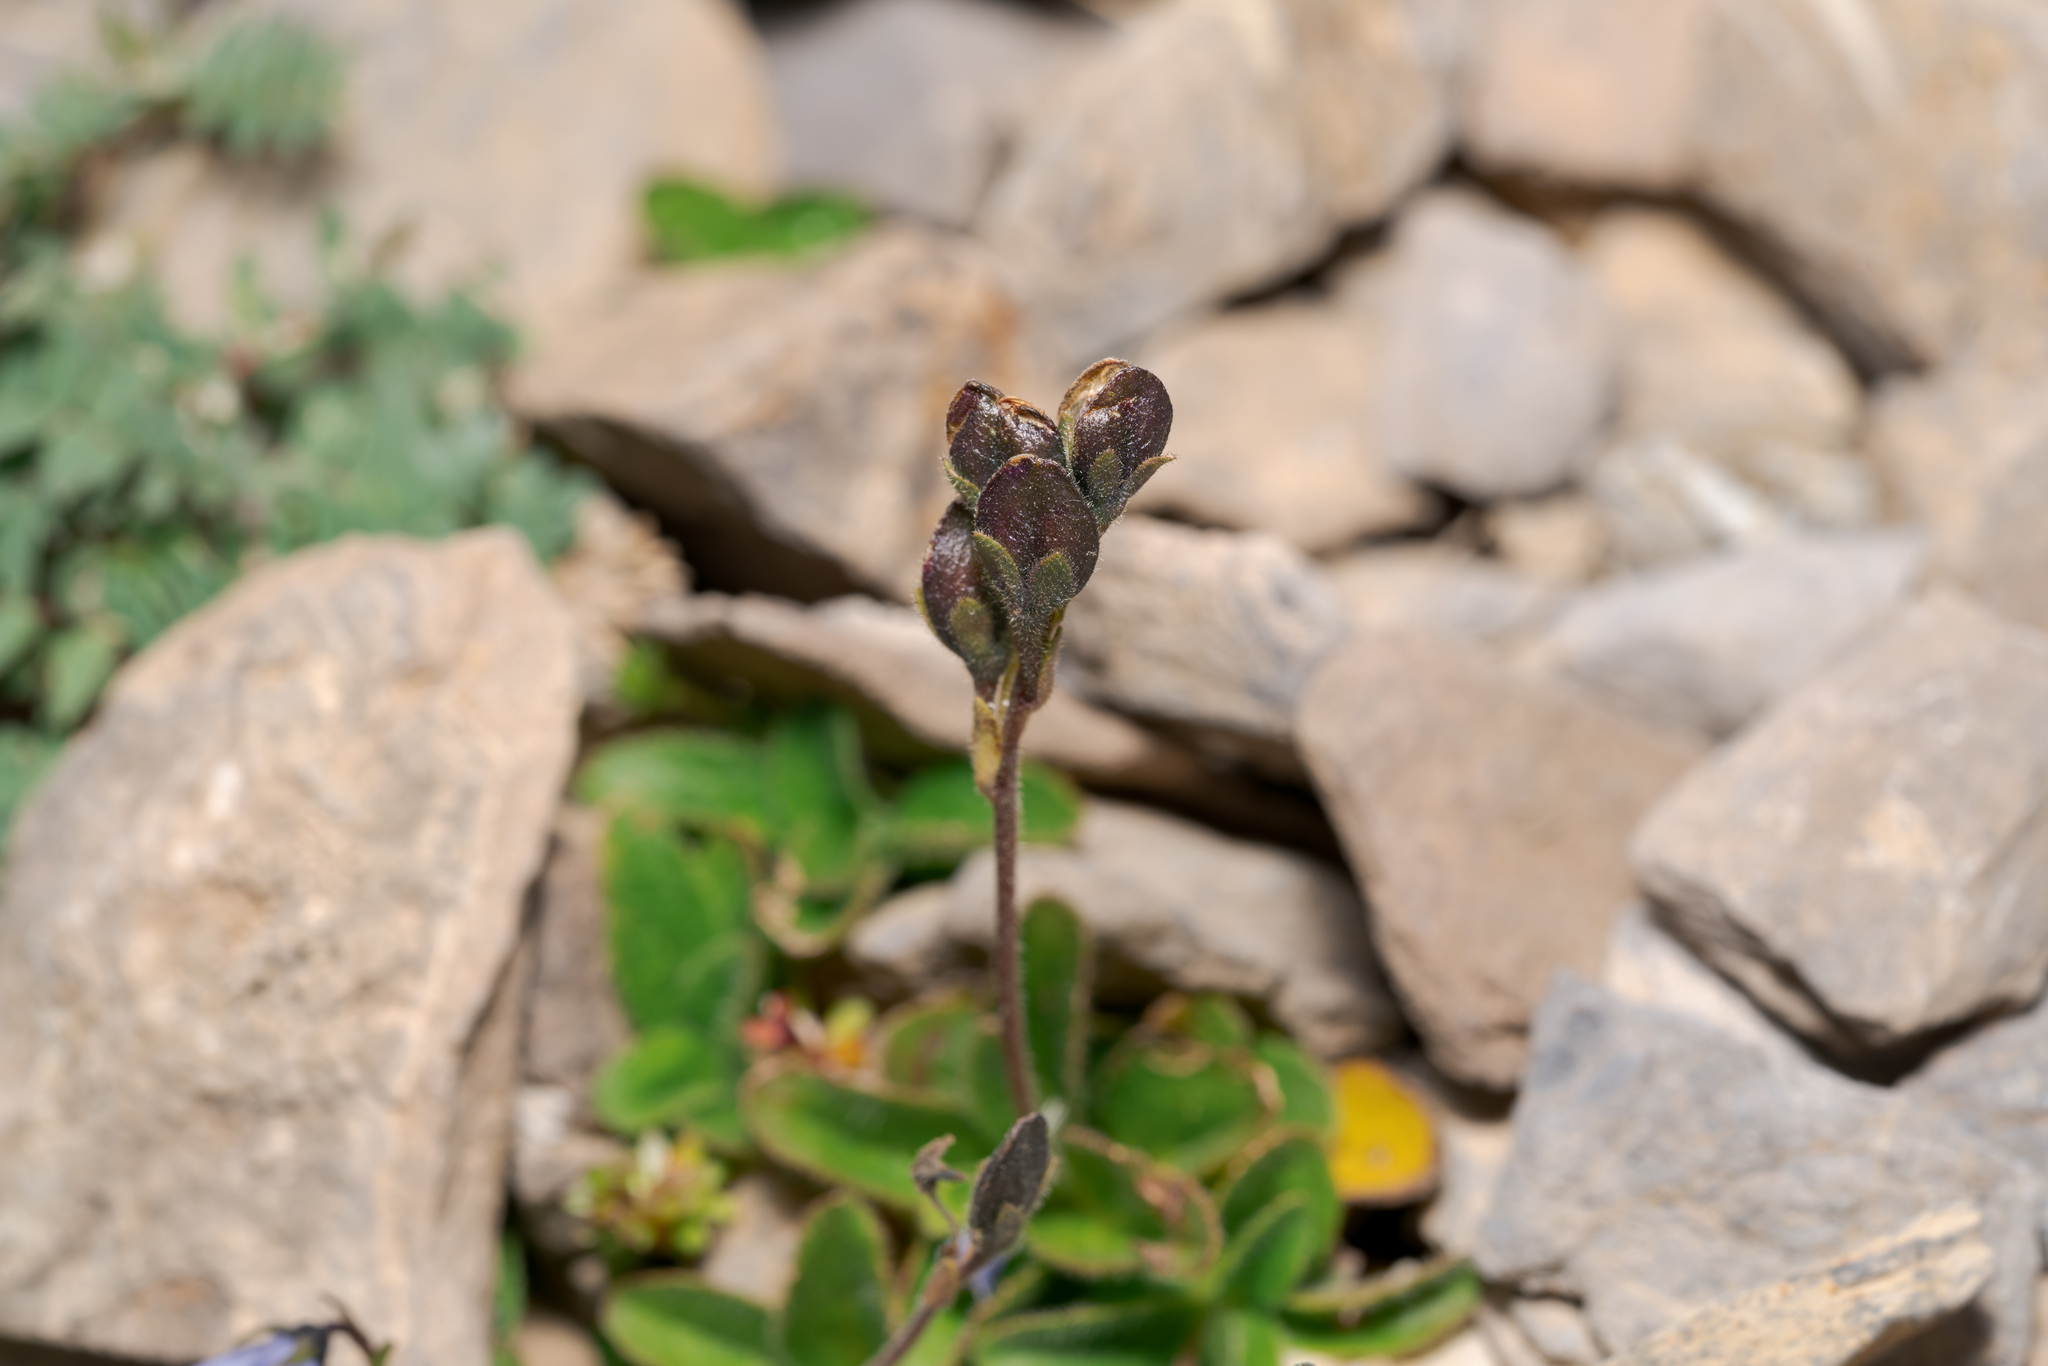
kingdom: Plantae
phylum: Tracheophyta
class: Magnoliopsida
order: Lamiales
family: Plantaginaceae
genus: Veronica
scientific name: Veronica aphylla
